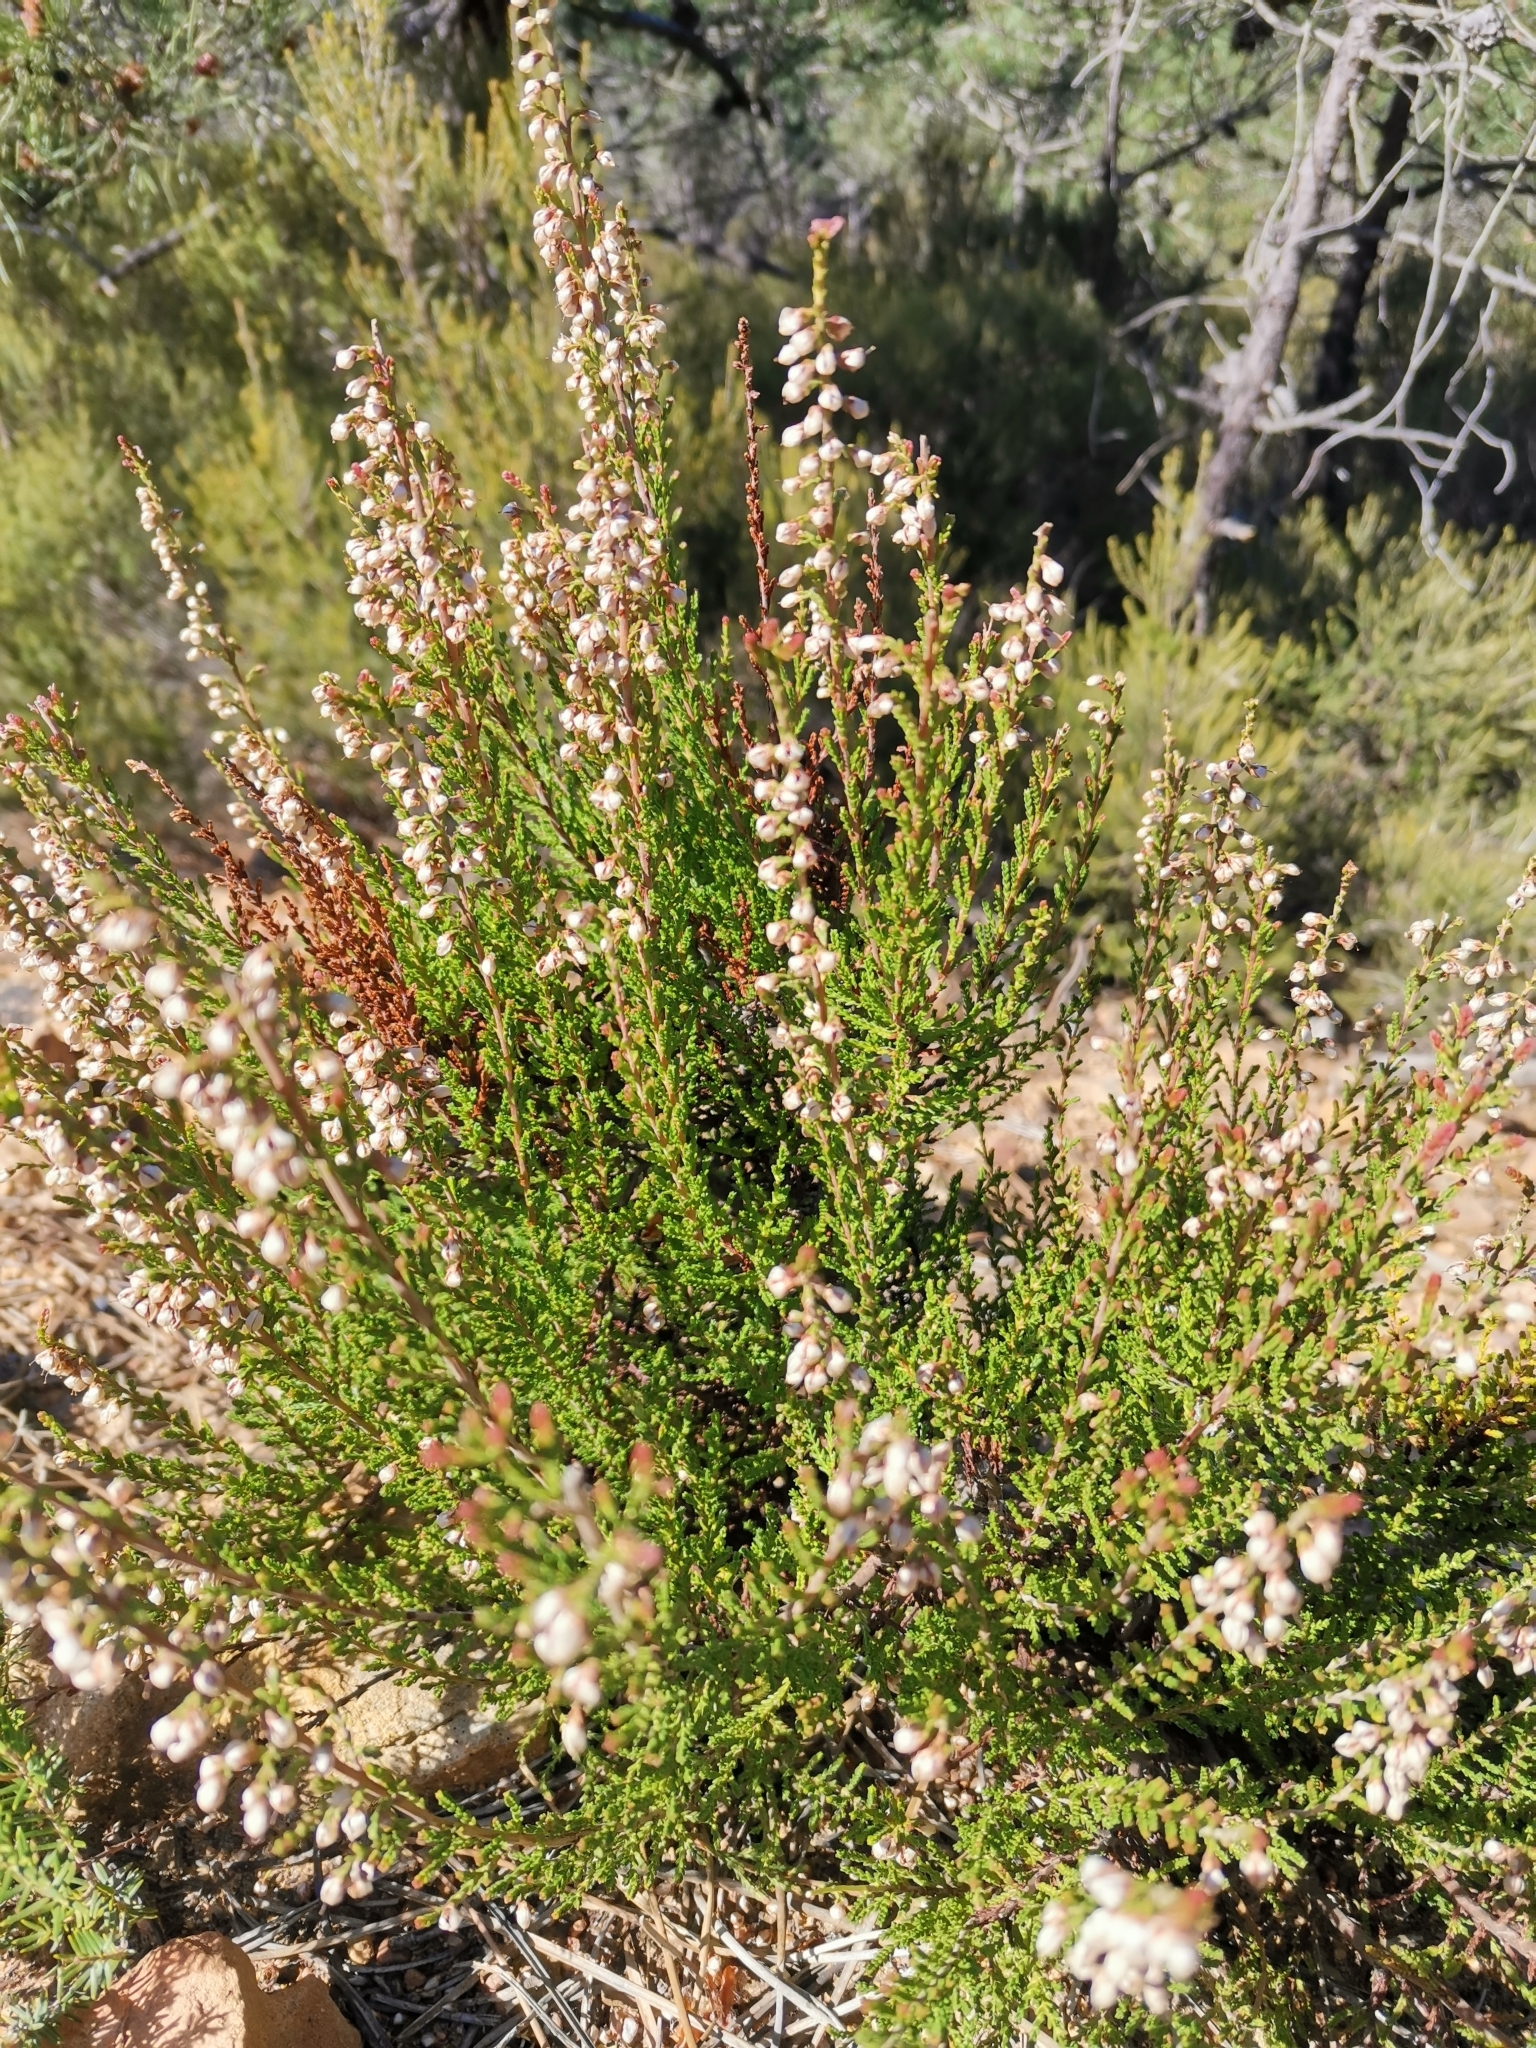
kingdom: Plantae
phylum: Tracheophyta
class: Magnoliopsida
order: Ericales
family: Ericaceae
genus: Calluna
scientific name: Calluna vulgaris
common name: Heather
